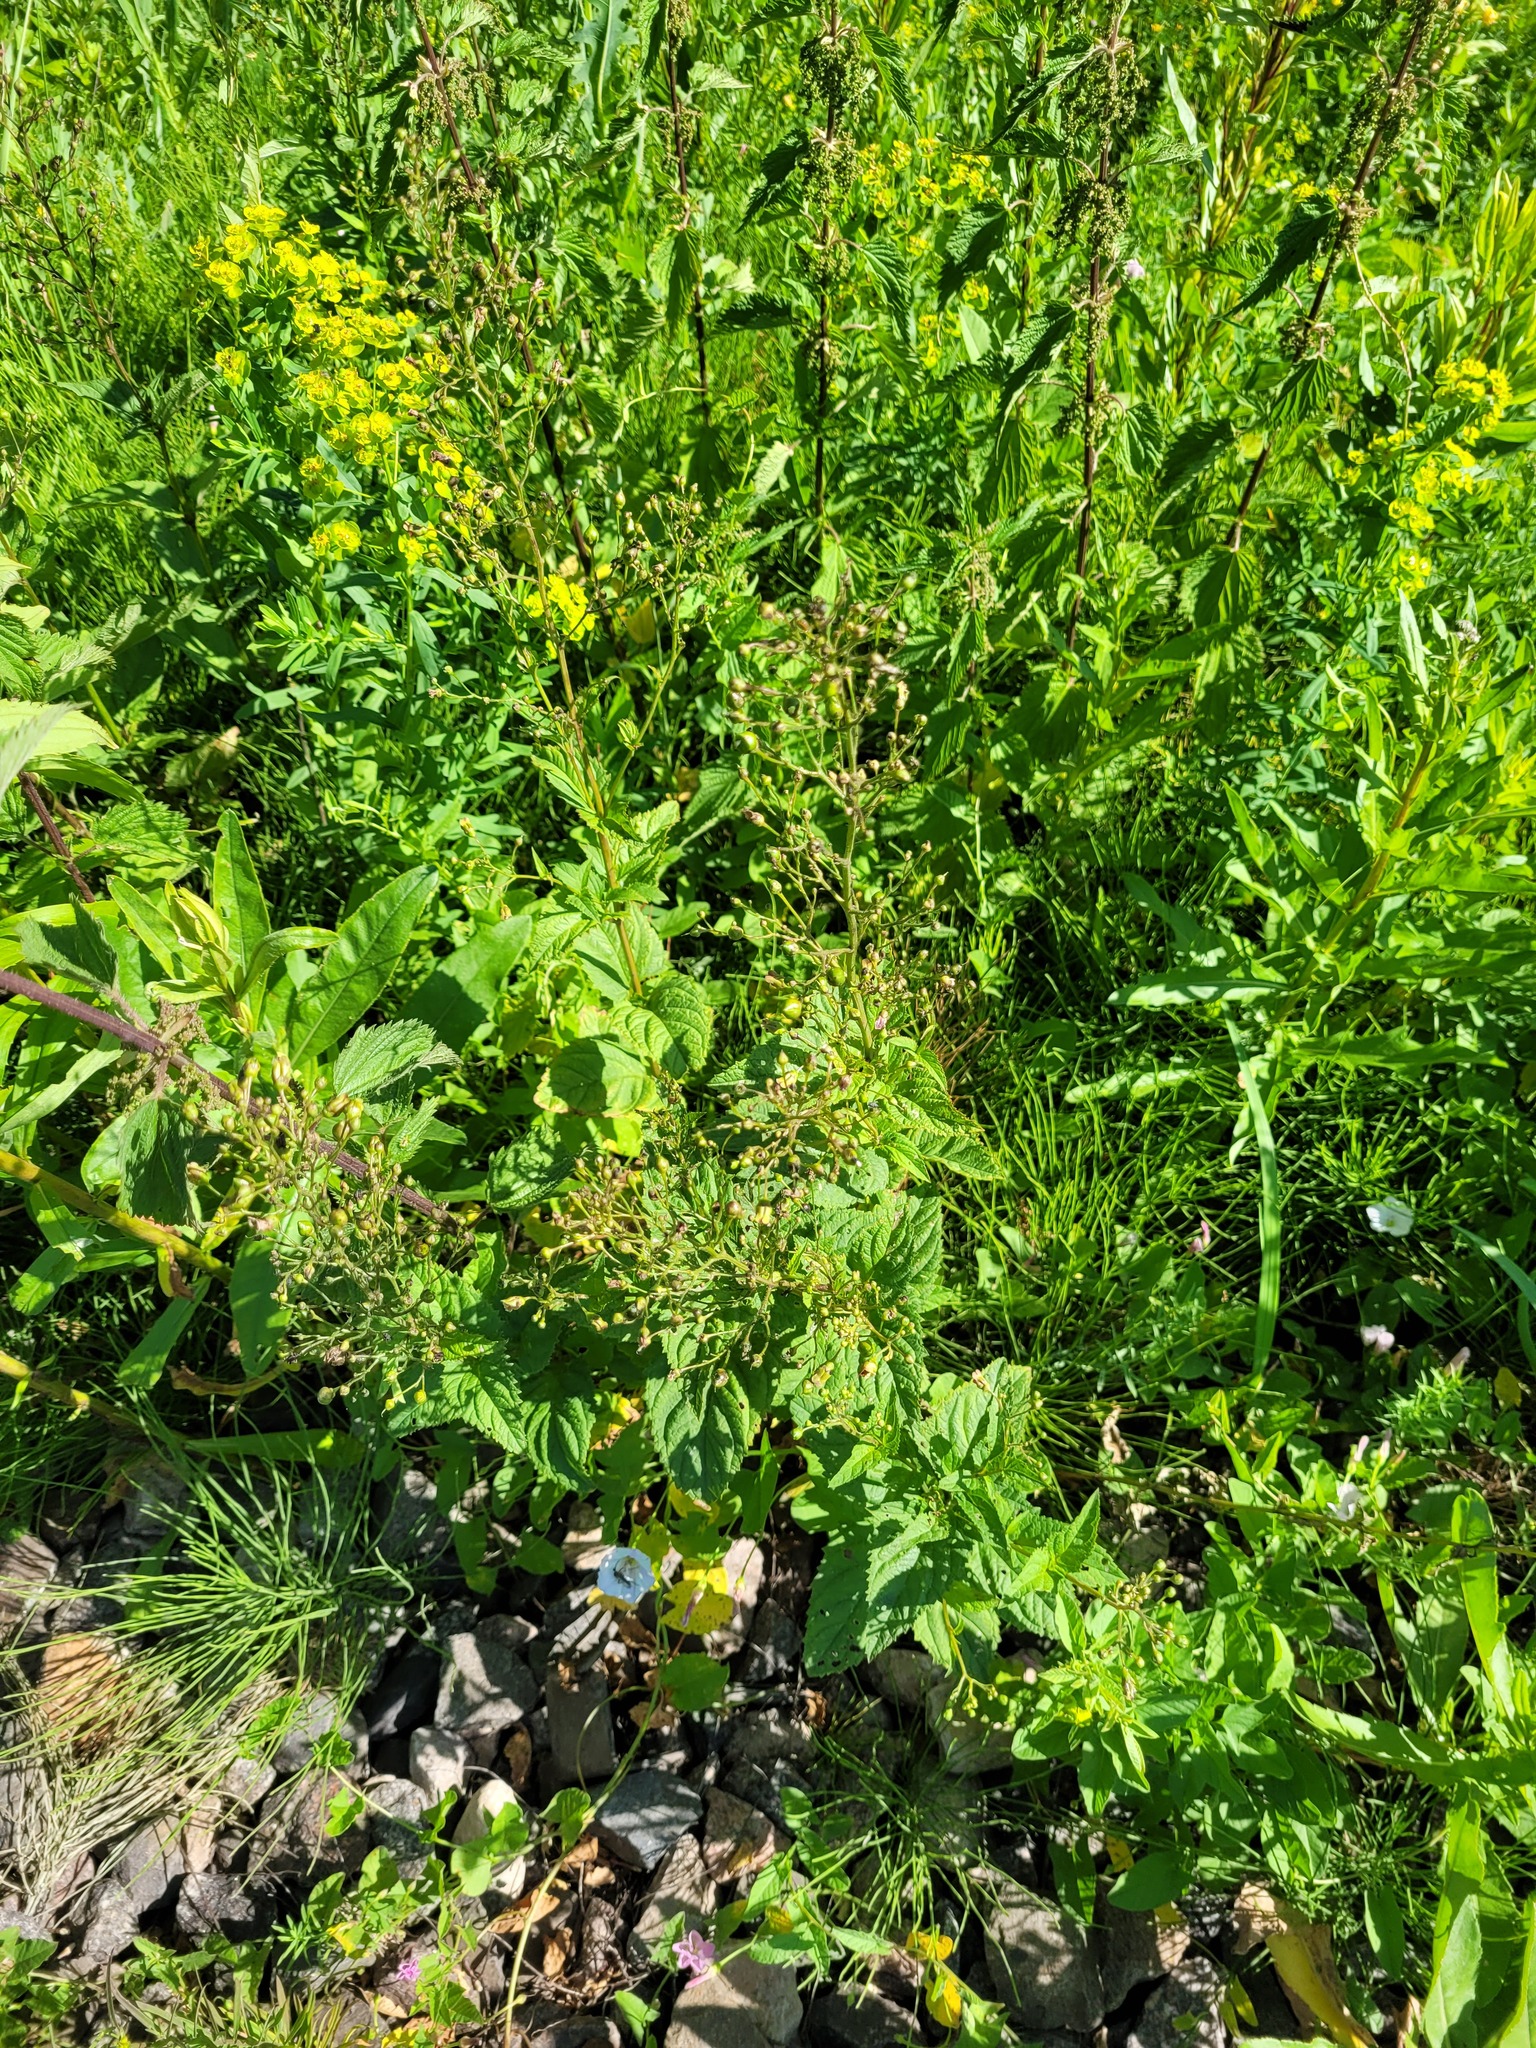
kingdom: Plantae
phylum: Tracheophyta
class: Magnoliopsida
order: Lamiales
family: Scrophulariaceae
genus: Scrophularia
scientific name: Scrophularia nodosa
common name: Common figwort
